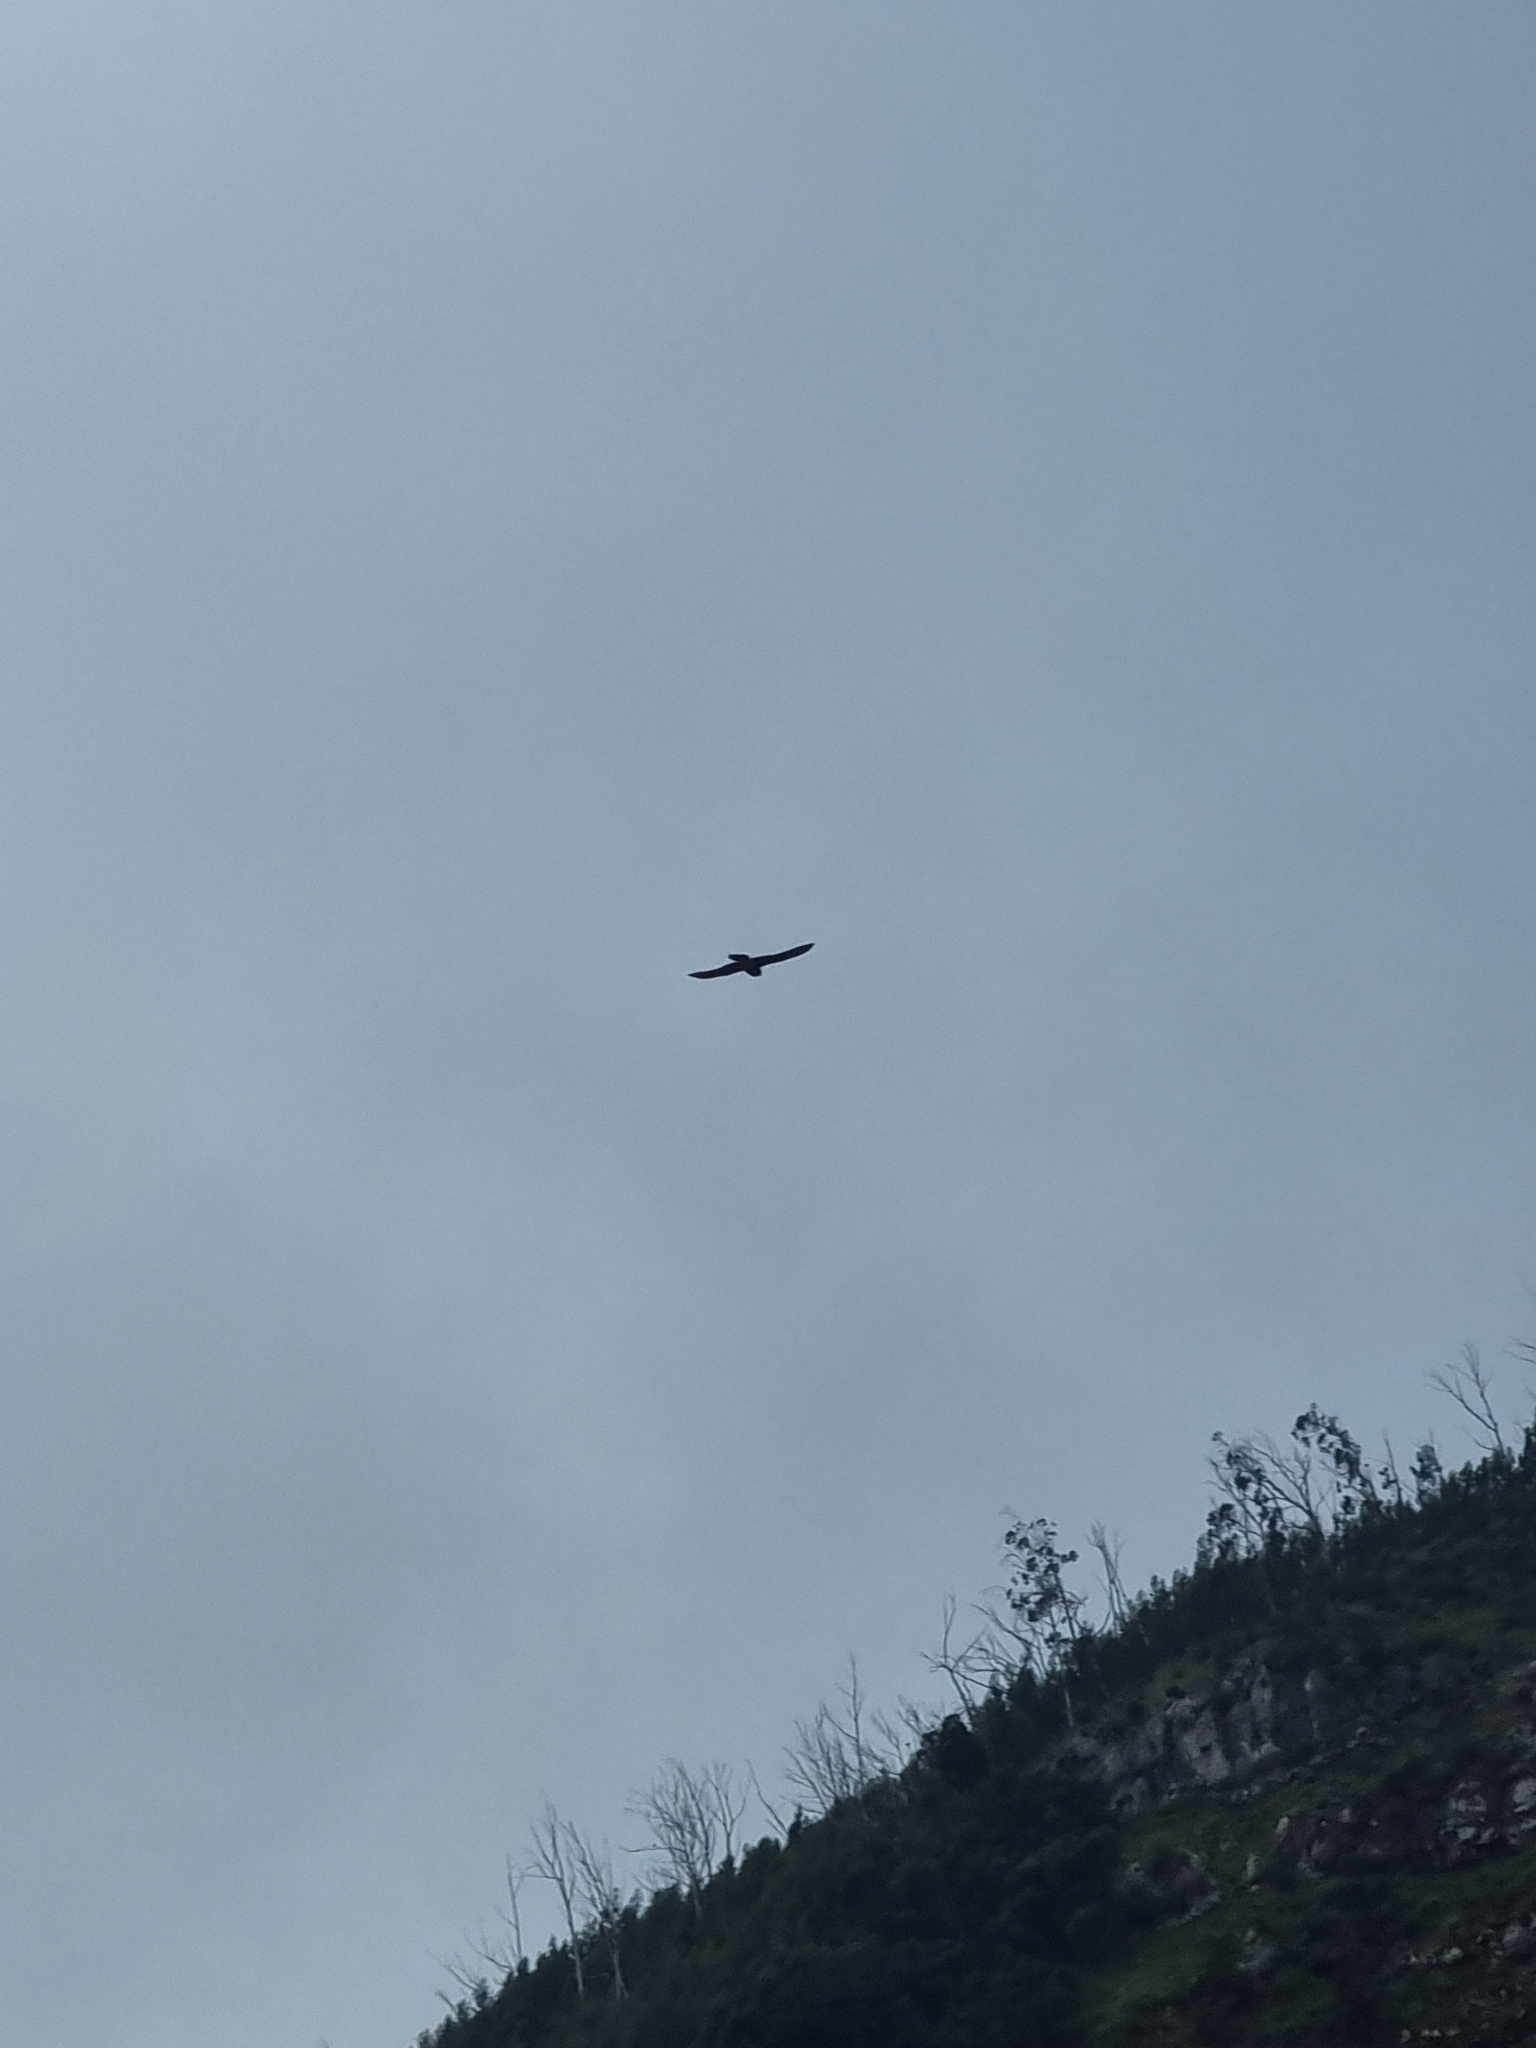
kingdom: Animalia
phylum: Chordata
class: Aves
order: Falconiformes
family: Falconidae
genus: Falco
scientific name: Falco tinnunculus
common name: Common kestrel
